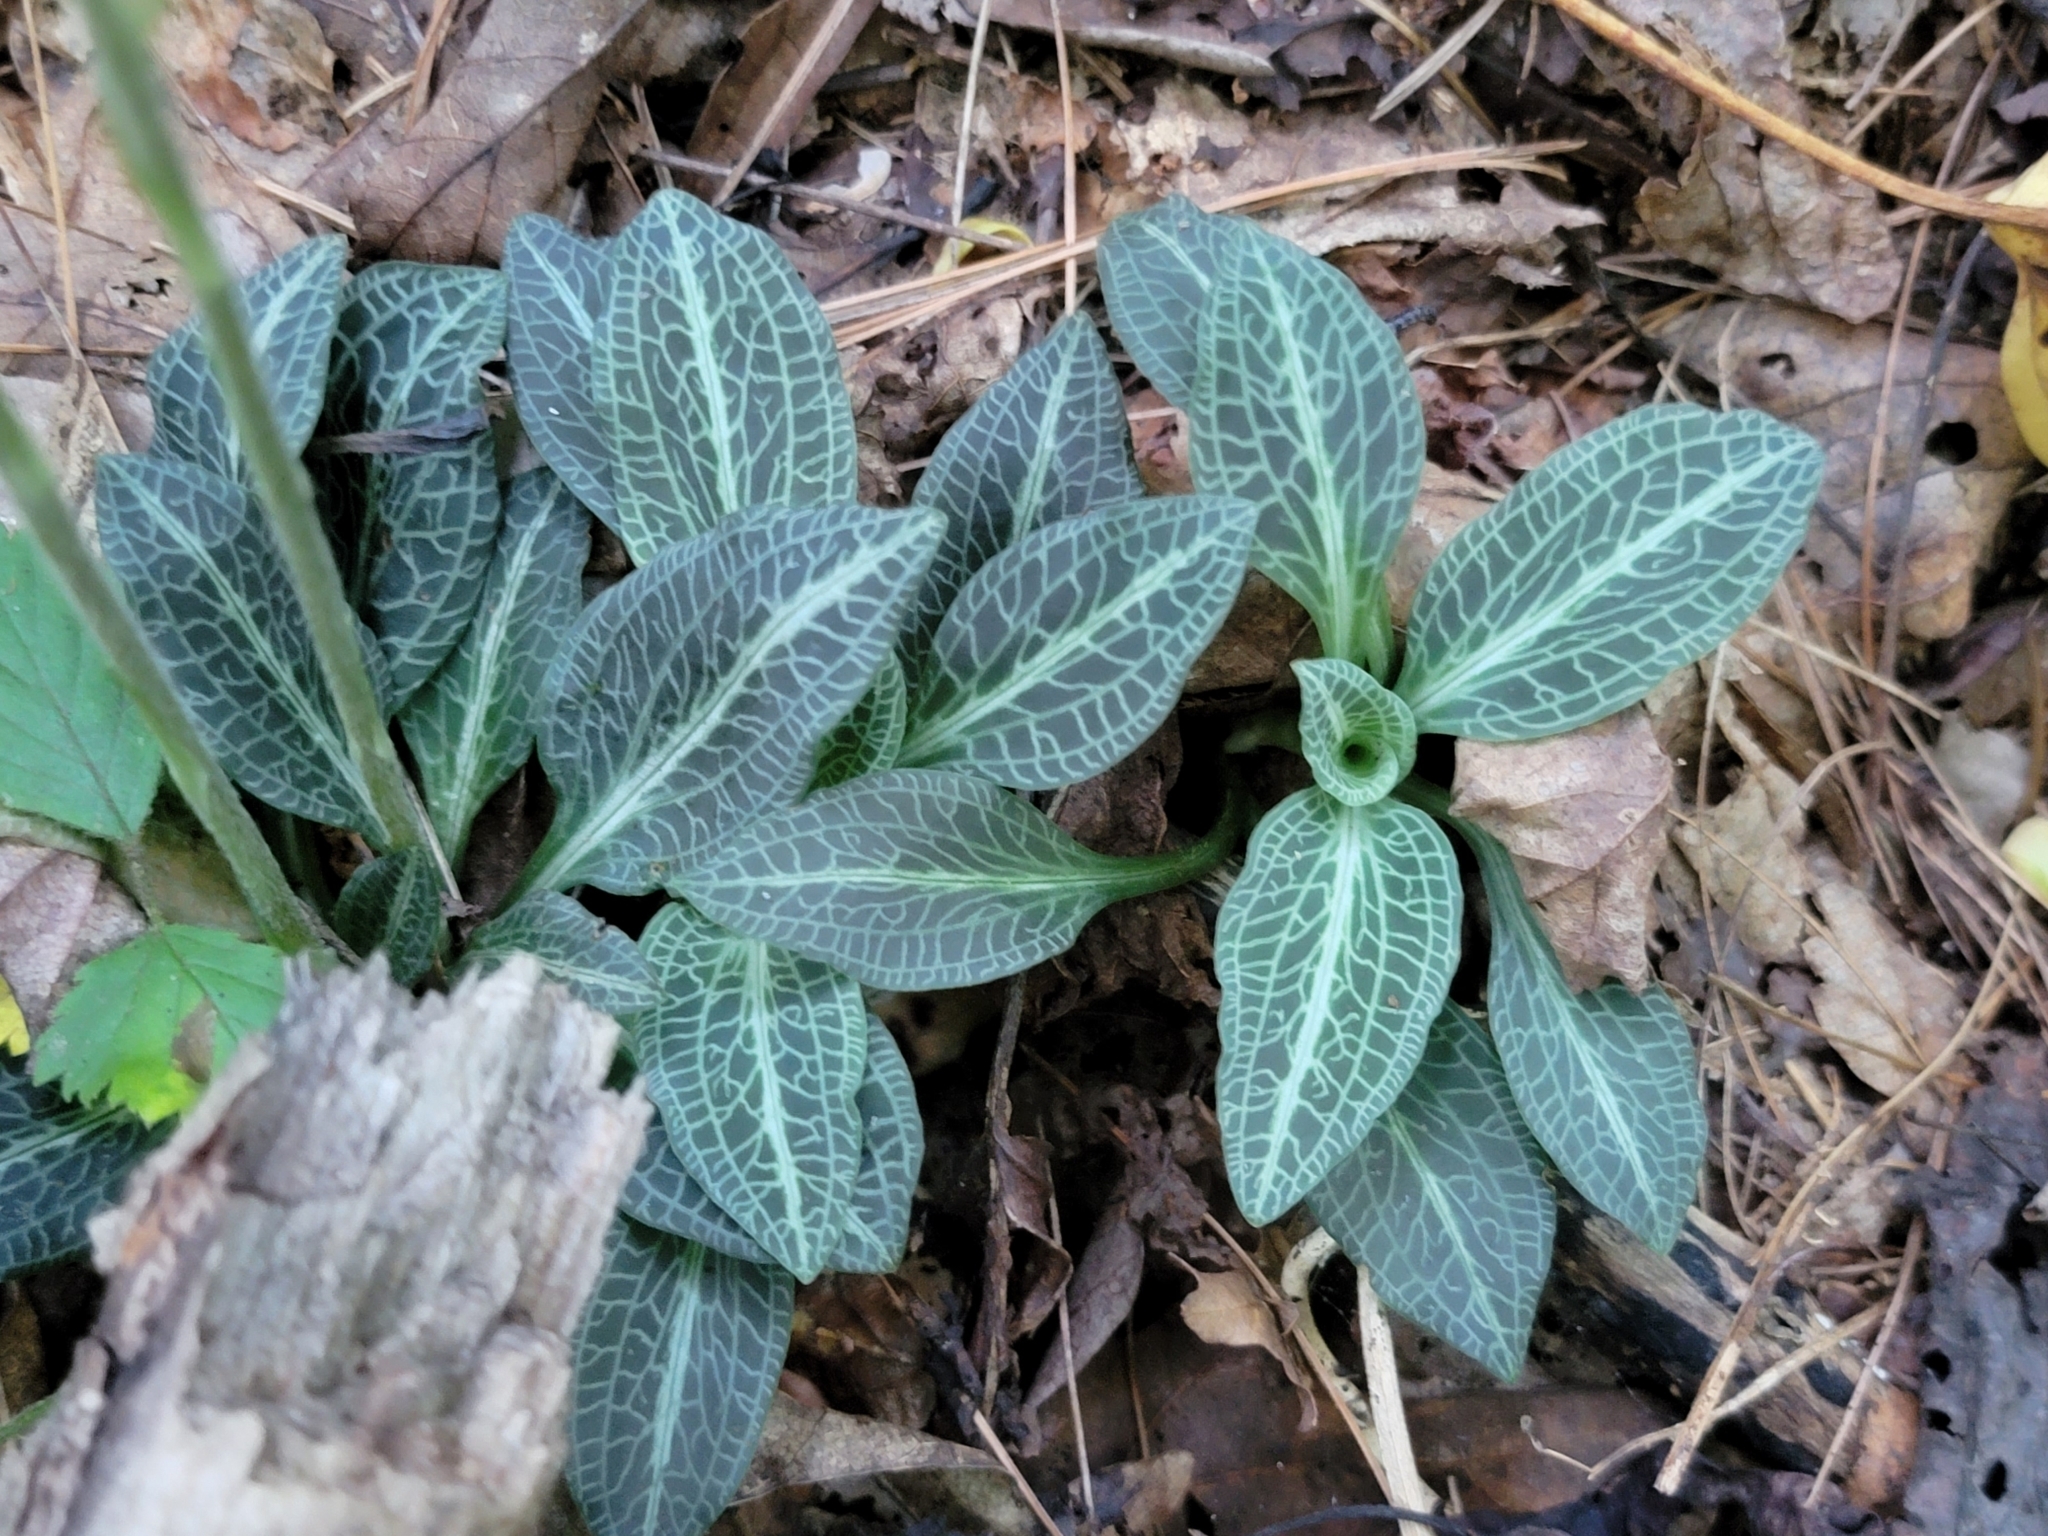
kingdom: Plantae
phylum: Tracheophyta
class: Liliopsida
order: Asparagales
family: Orchidaceae
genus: Goodyera
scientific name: Goodyera pubescens
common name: Downy rattlesnake-plantain
